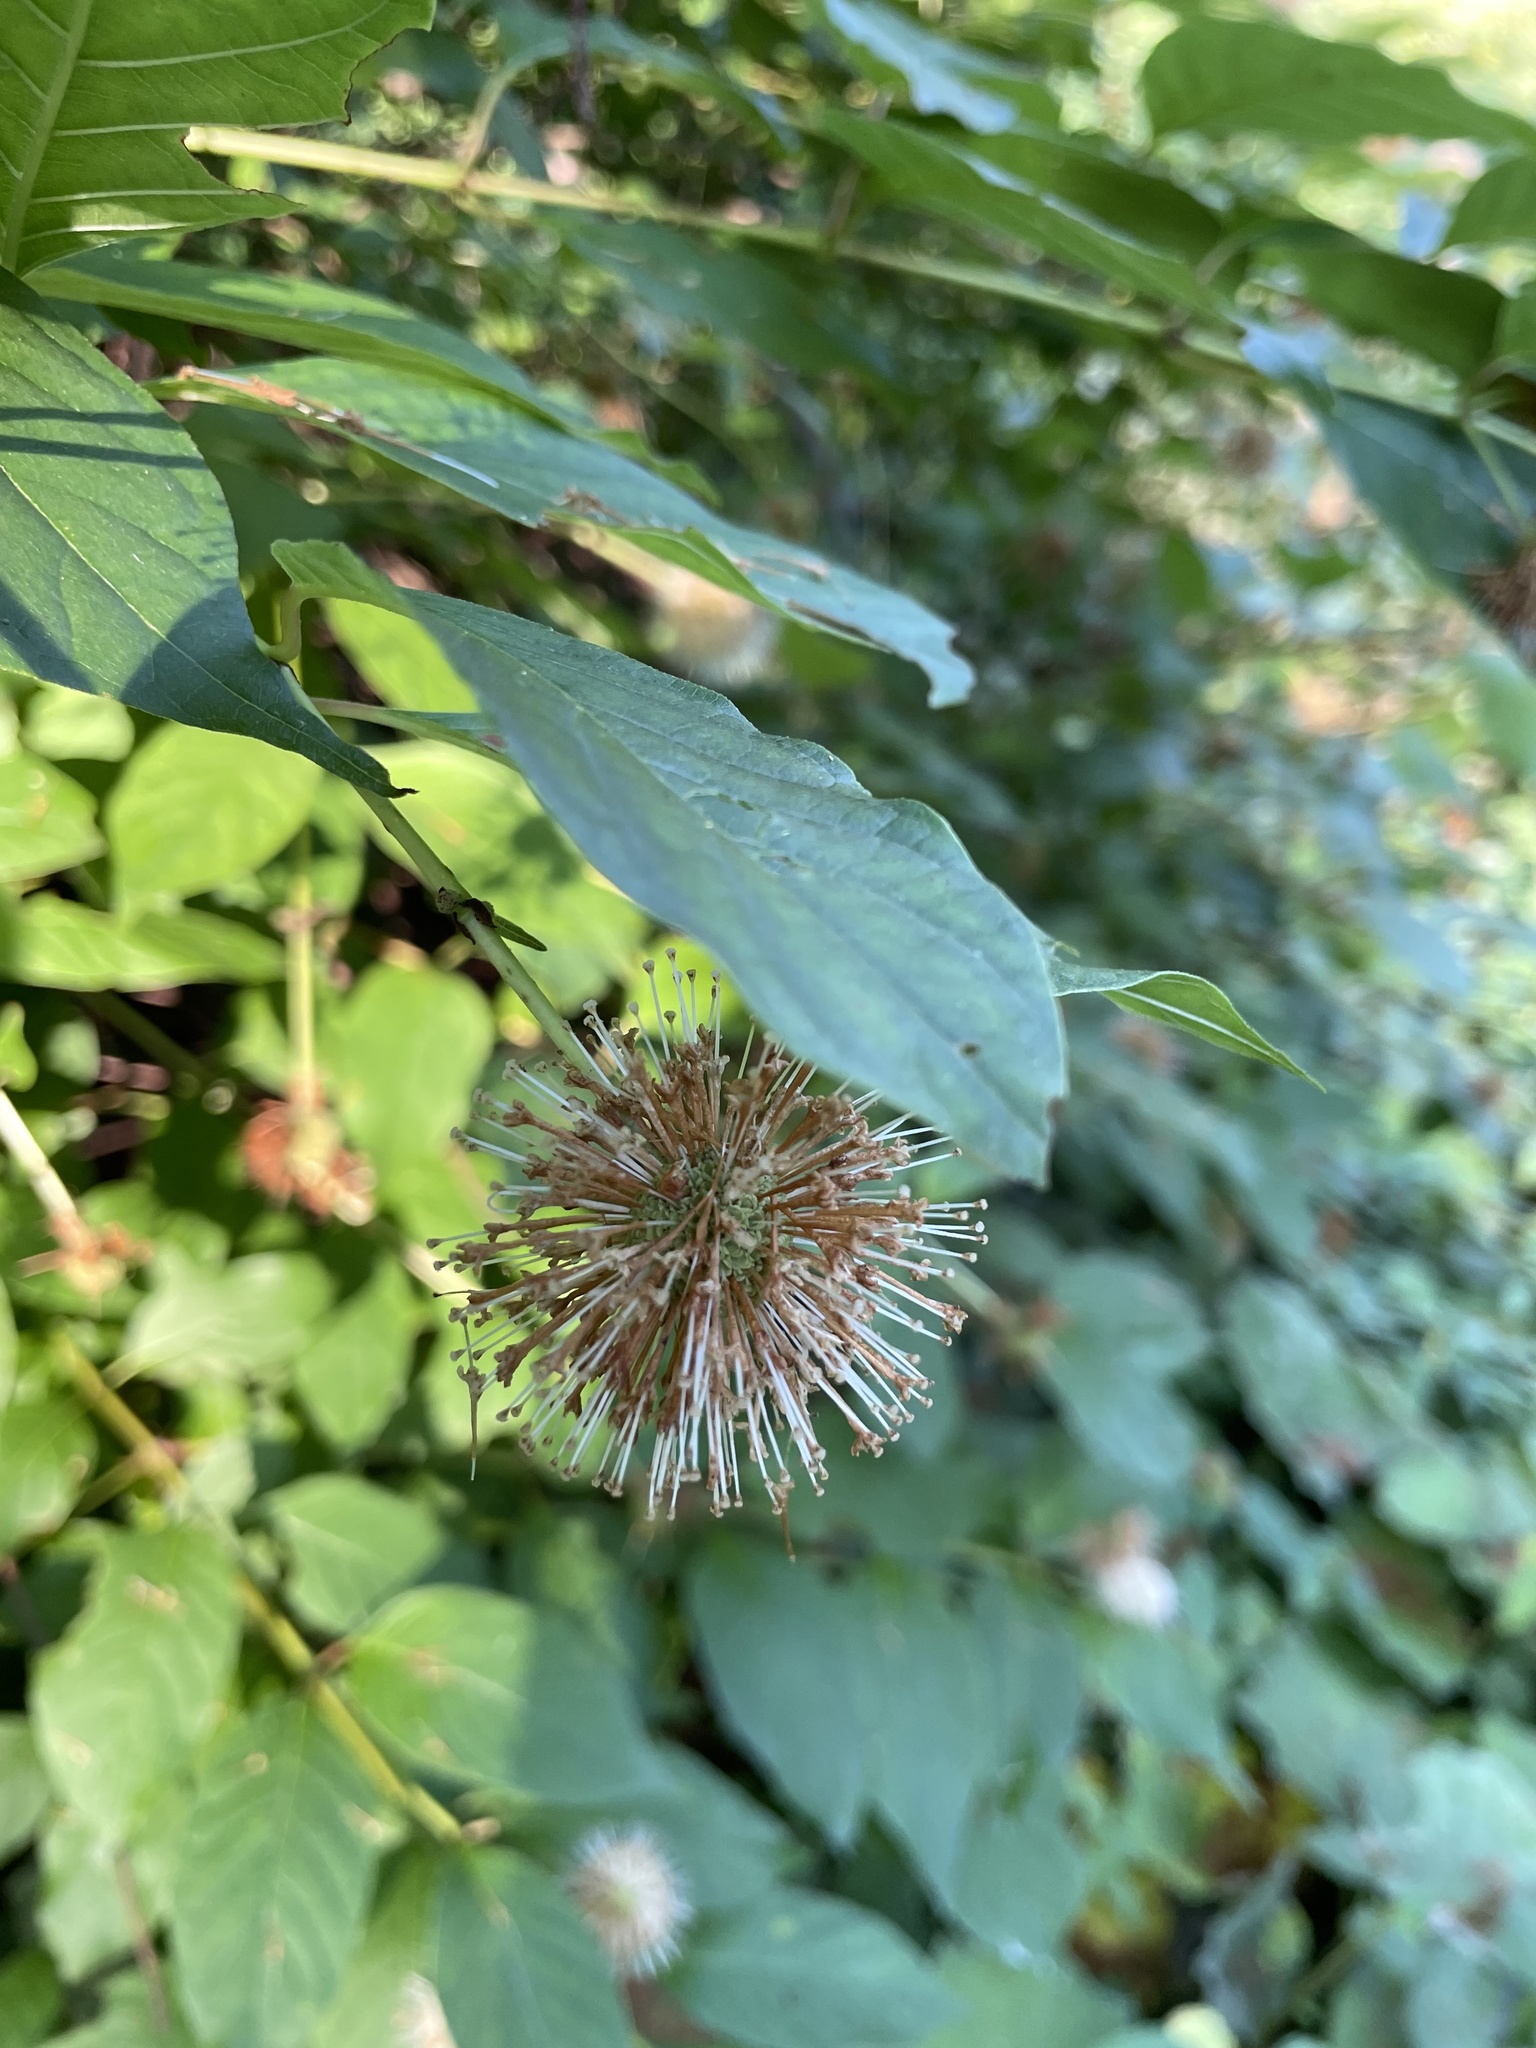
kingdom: Plantae
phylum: Tracheophyta
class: Magnoliopsida
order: Gentianales
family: Rubiaceae
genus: Cephalanthus
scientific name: Cephalanthus occidentalis
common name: Button-willow
